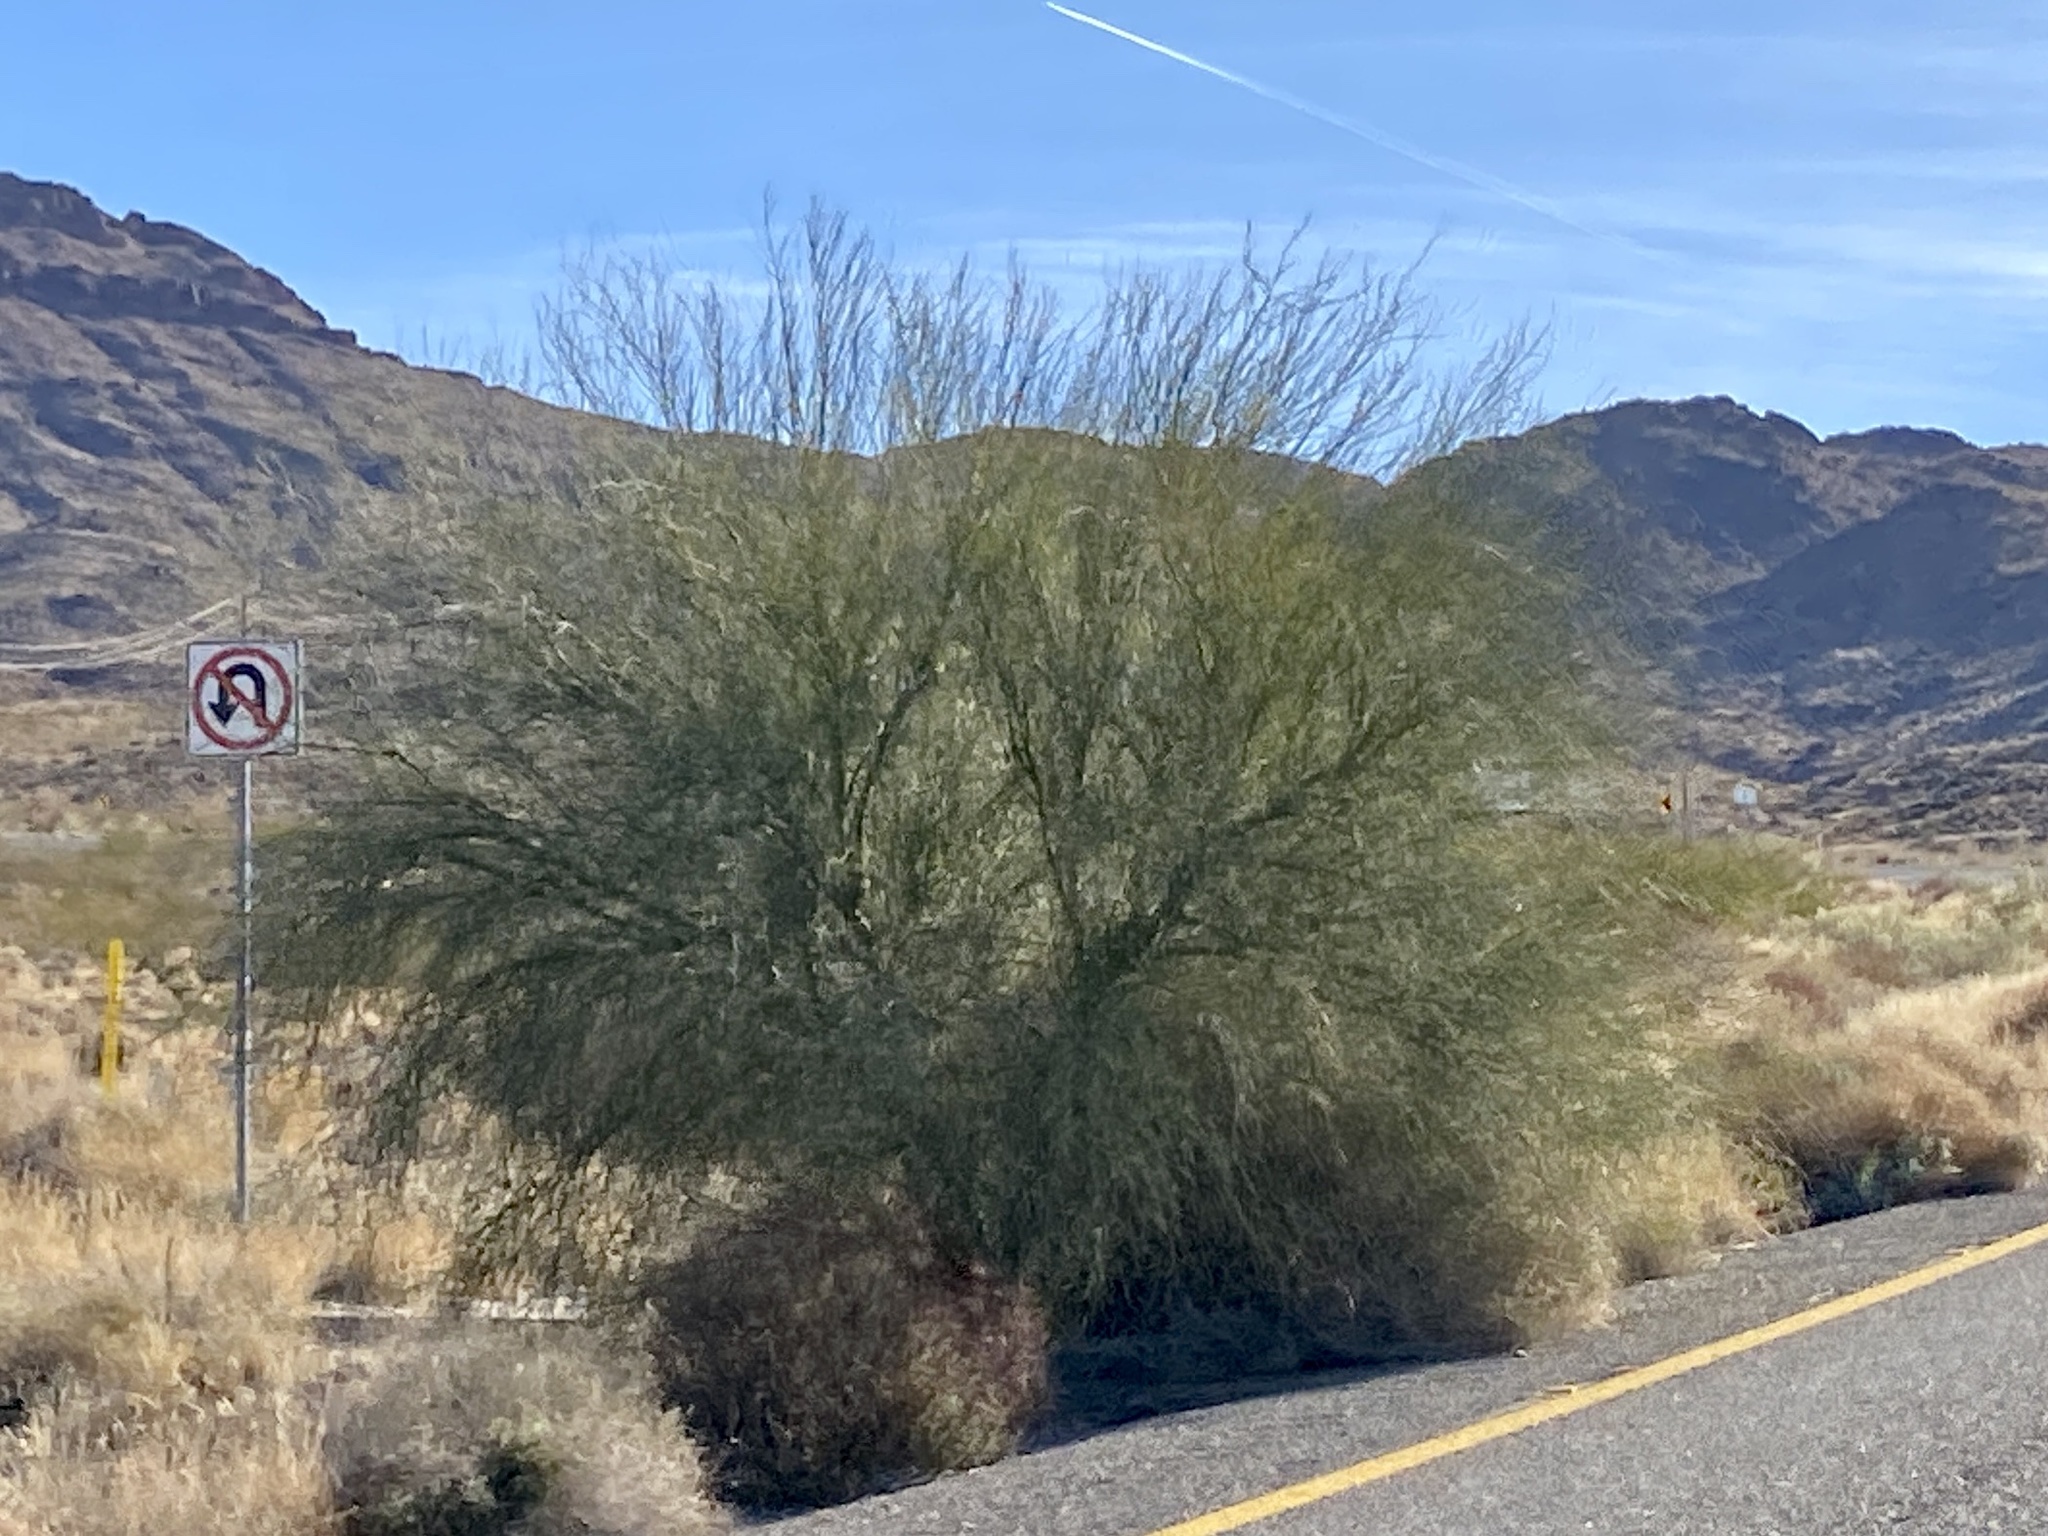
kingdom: Plantae
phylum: Tracheophyta
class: Magnoliopsida
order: Fabales
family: Fabaceae
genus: Parkinsonia
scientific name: Parkinsonia florida
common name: Blue paloverde
